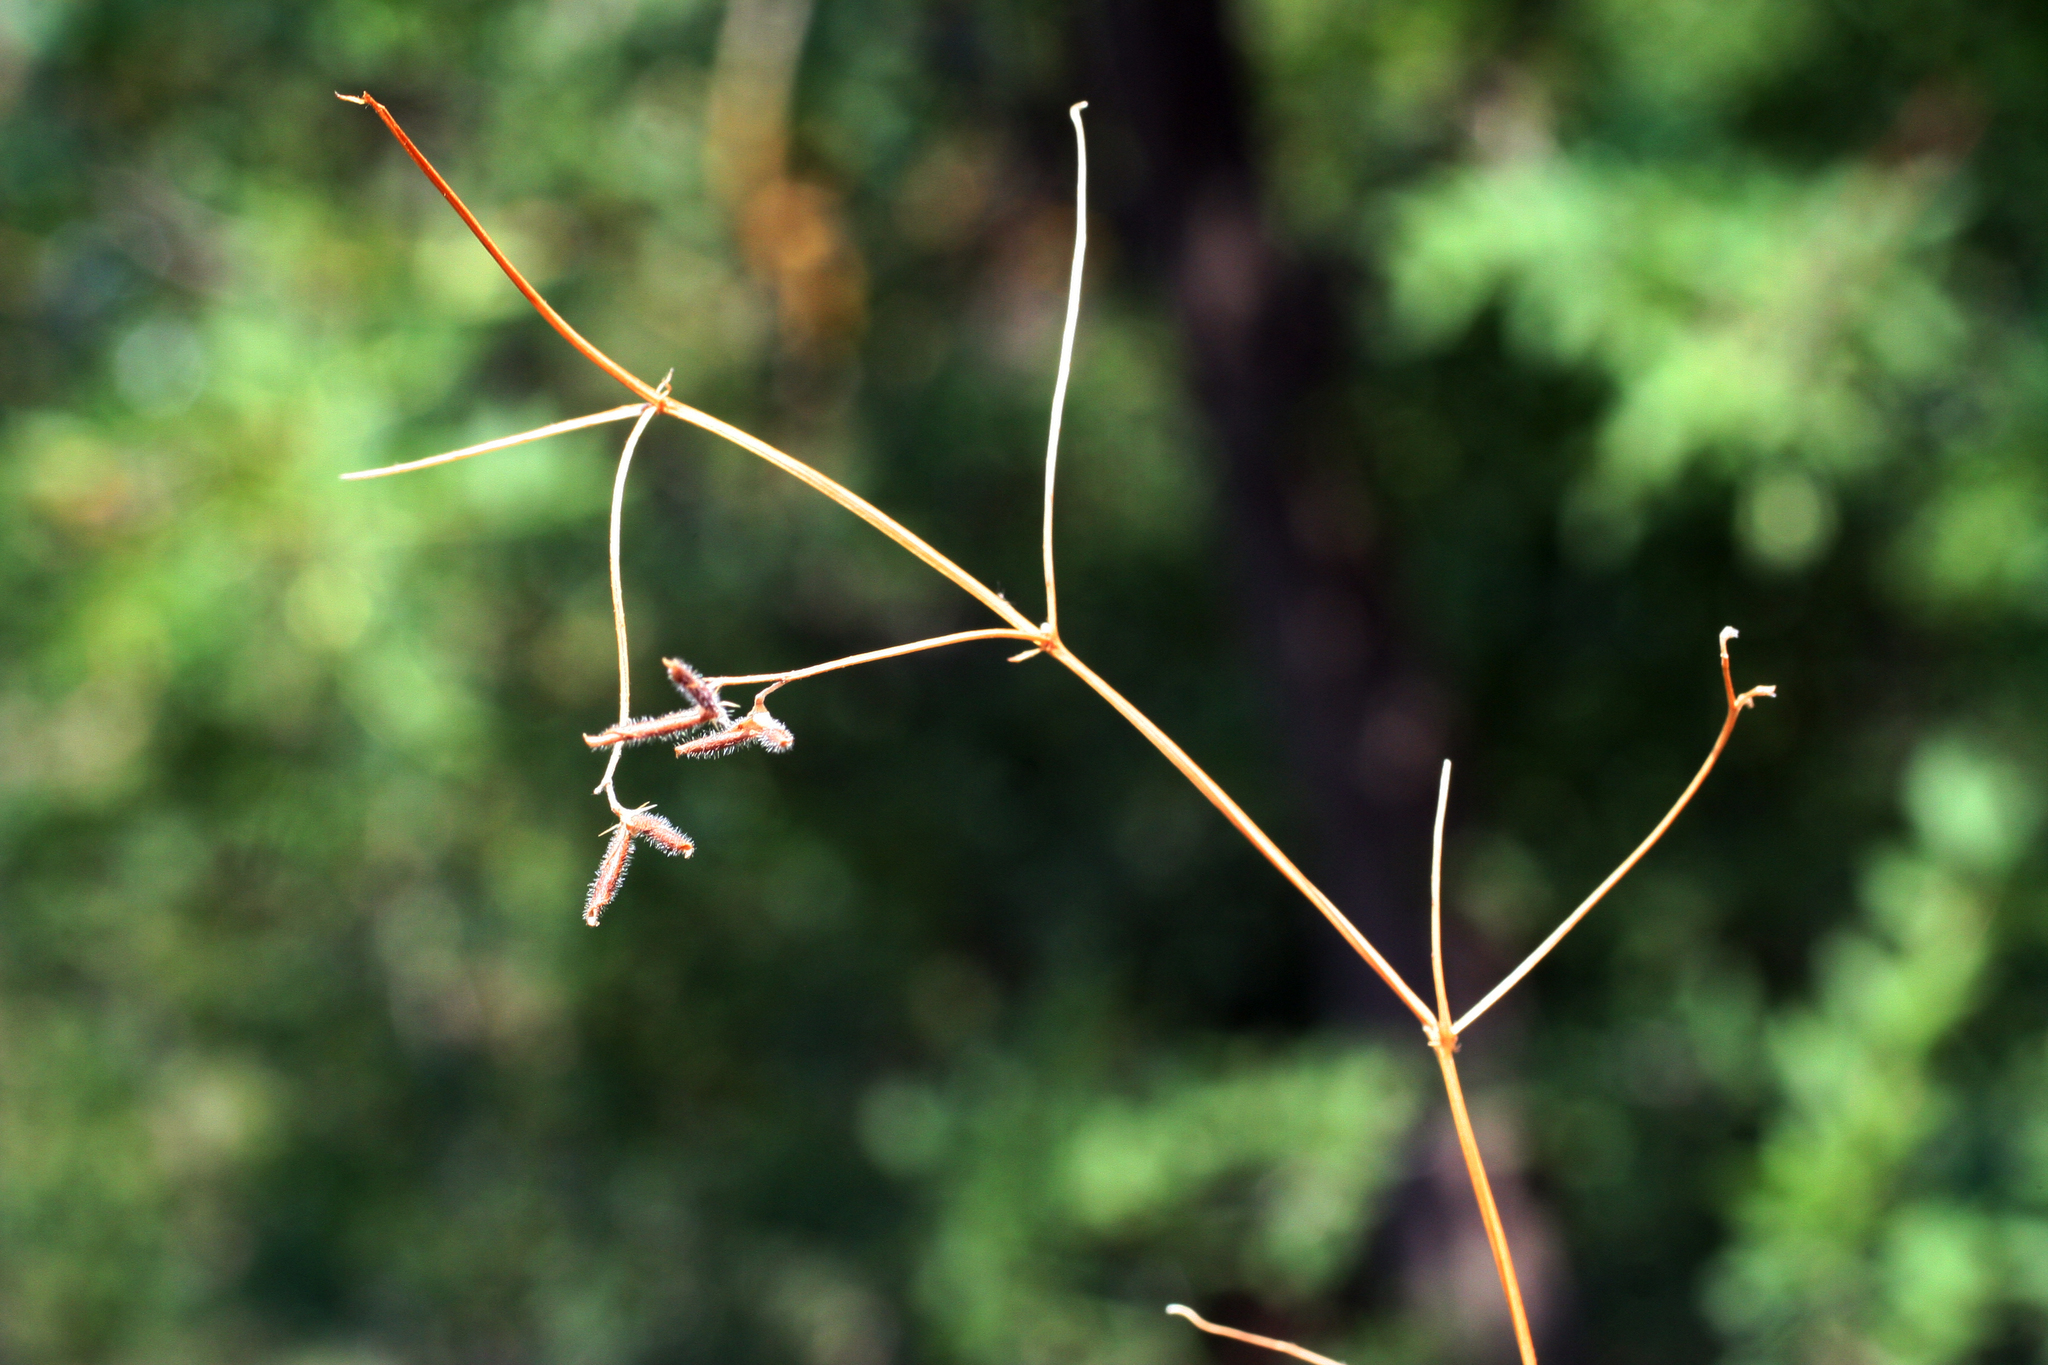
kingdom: Plantae
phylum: Tracheophyta
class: Magnoliopsida
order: Fabales
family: Fabaceae
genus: Vicia
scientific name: Vicia hirsuta
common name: Tiny vetch
